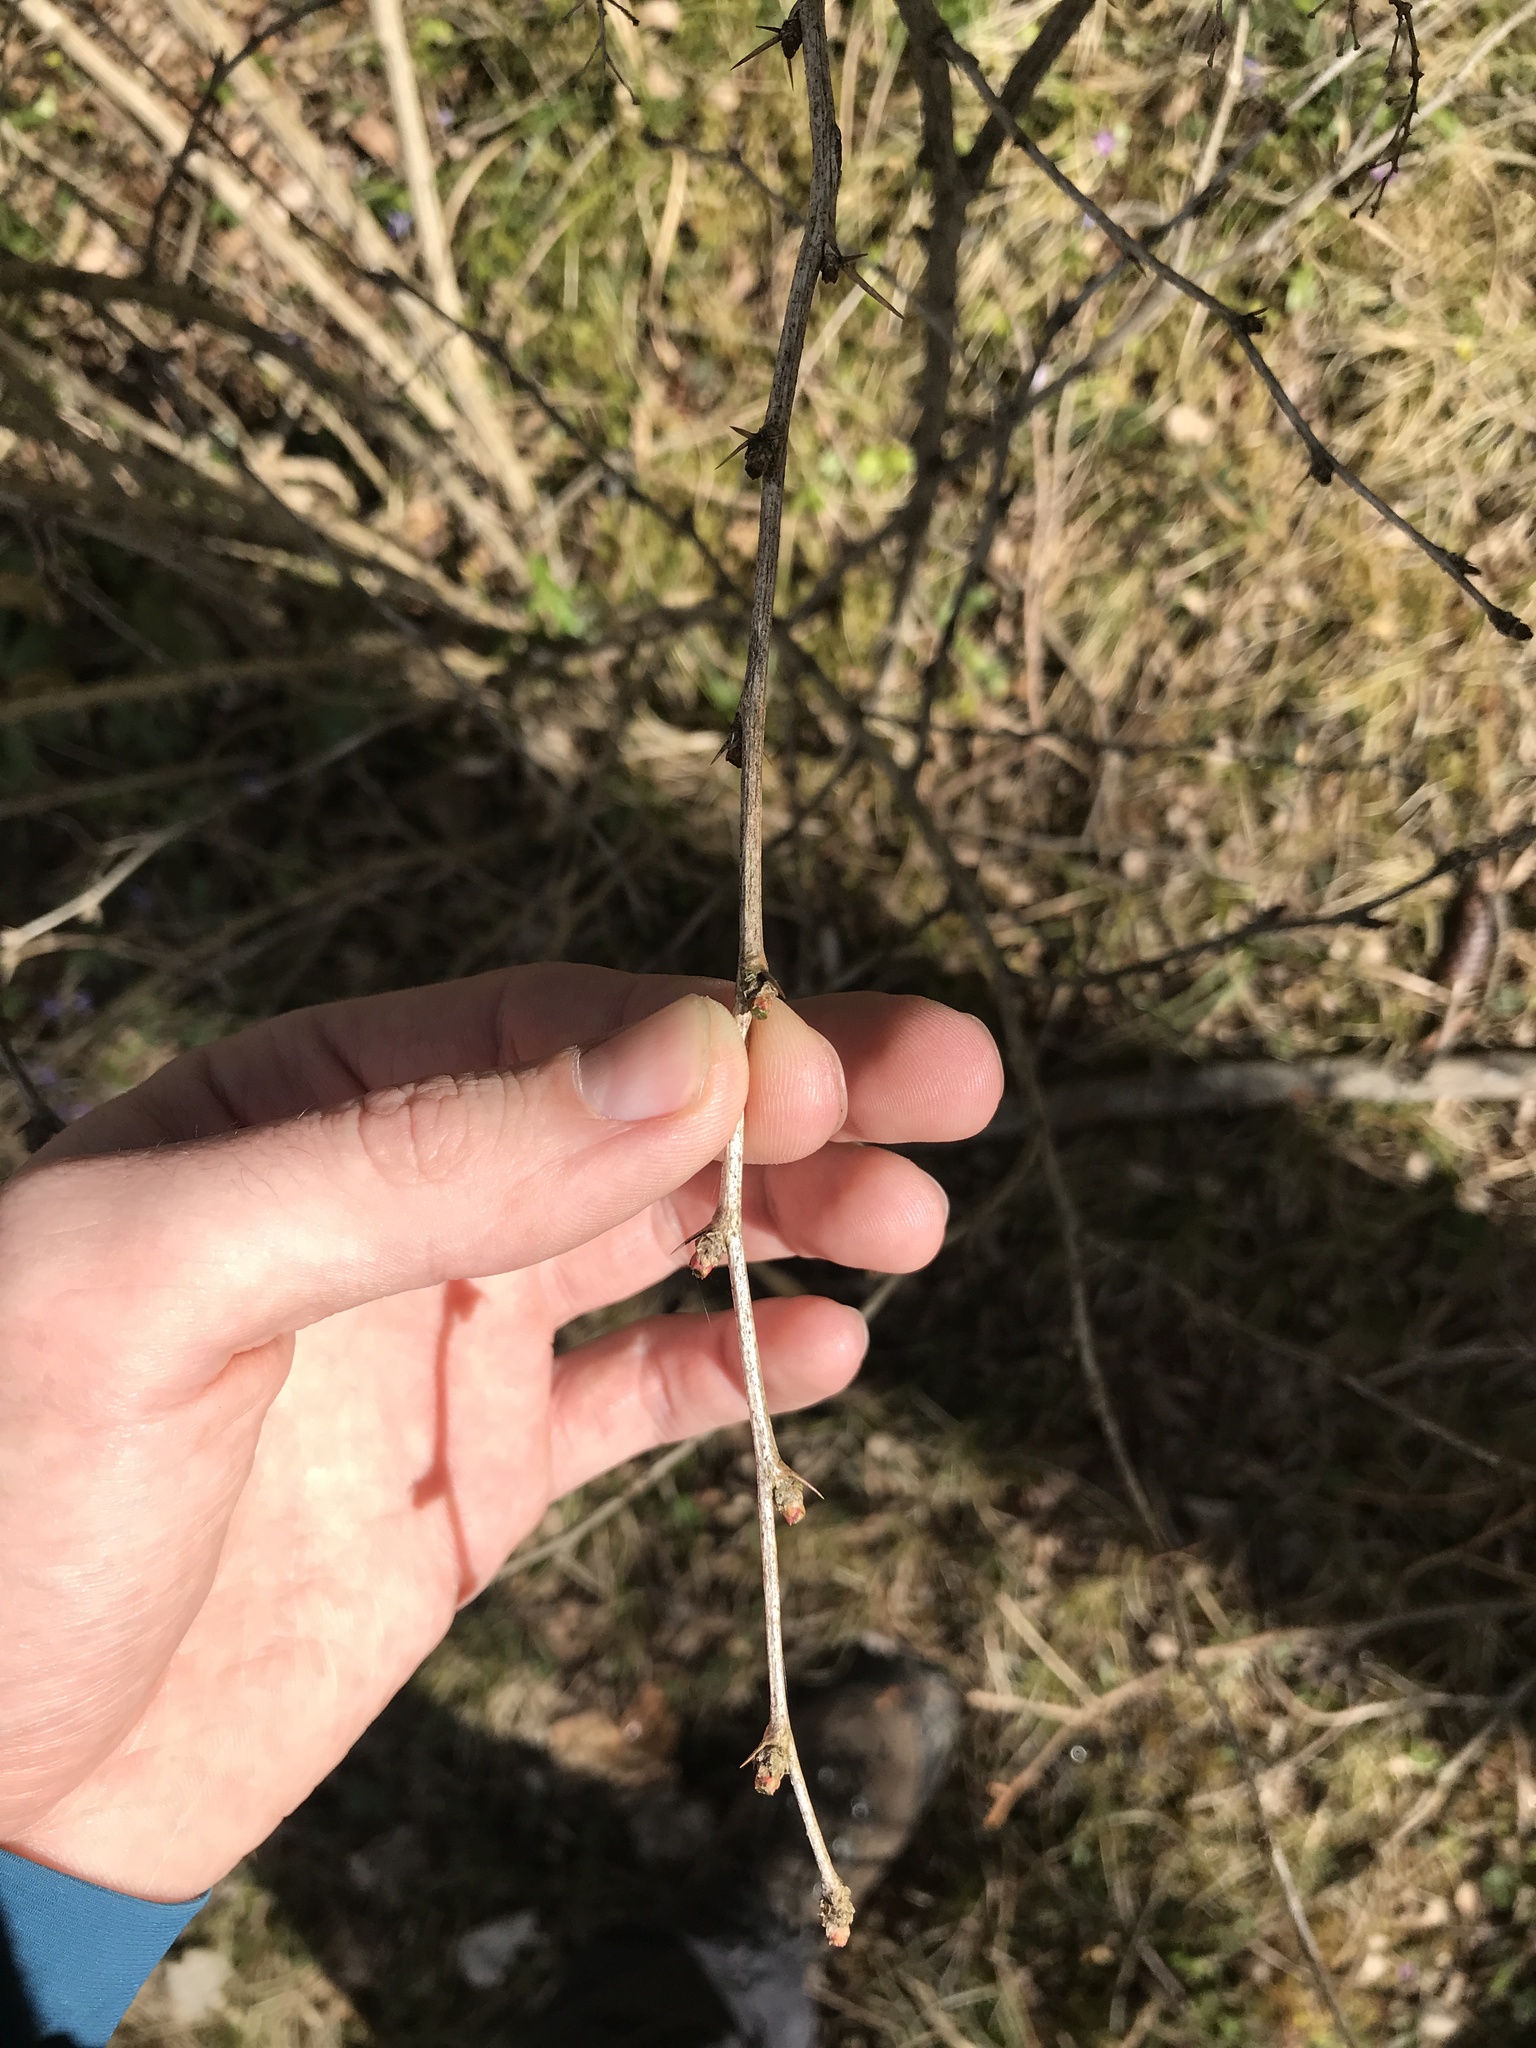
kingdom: Plantae
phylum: Tracheophyta
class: Magnoliopsida
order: Ranunculales
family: Berberidaceae
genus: Berberis
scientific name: Berberis vulgaris
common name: Barberry
